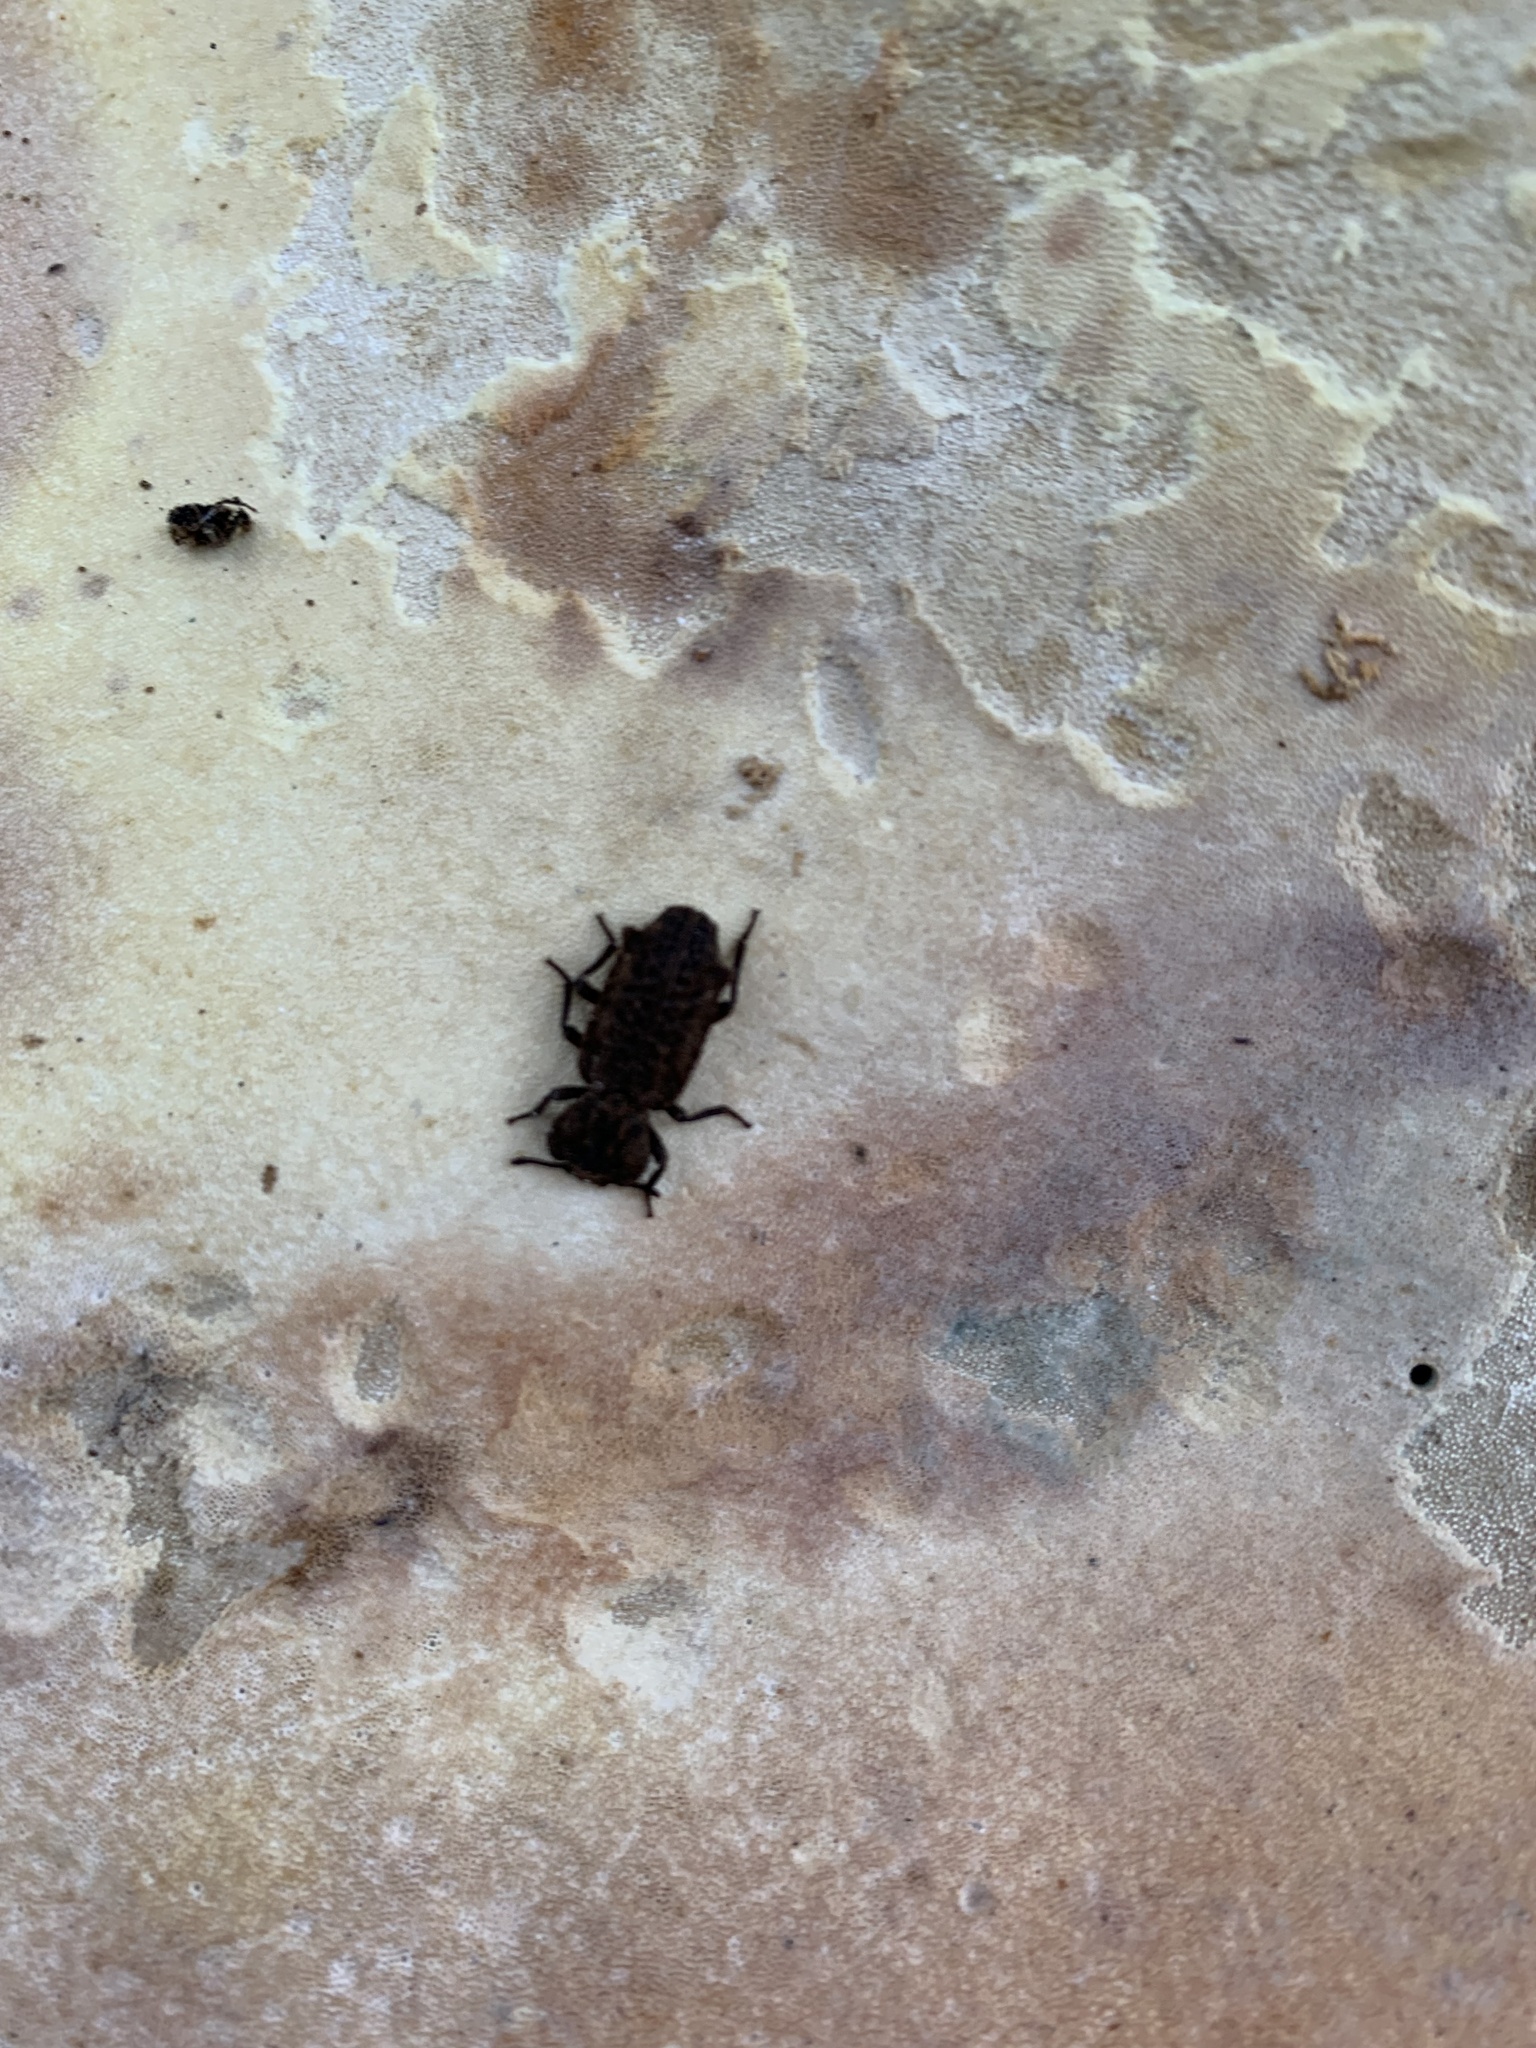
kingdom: Animalia
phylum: Arthropoda
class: Insecta
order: Coleoptera
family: Zopheridae
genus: Phellopsis
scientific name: Phellopsis obcordata
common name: Eastern ironclad beetle
